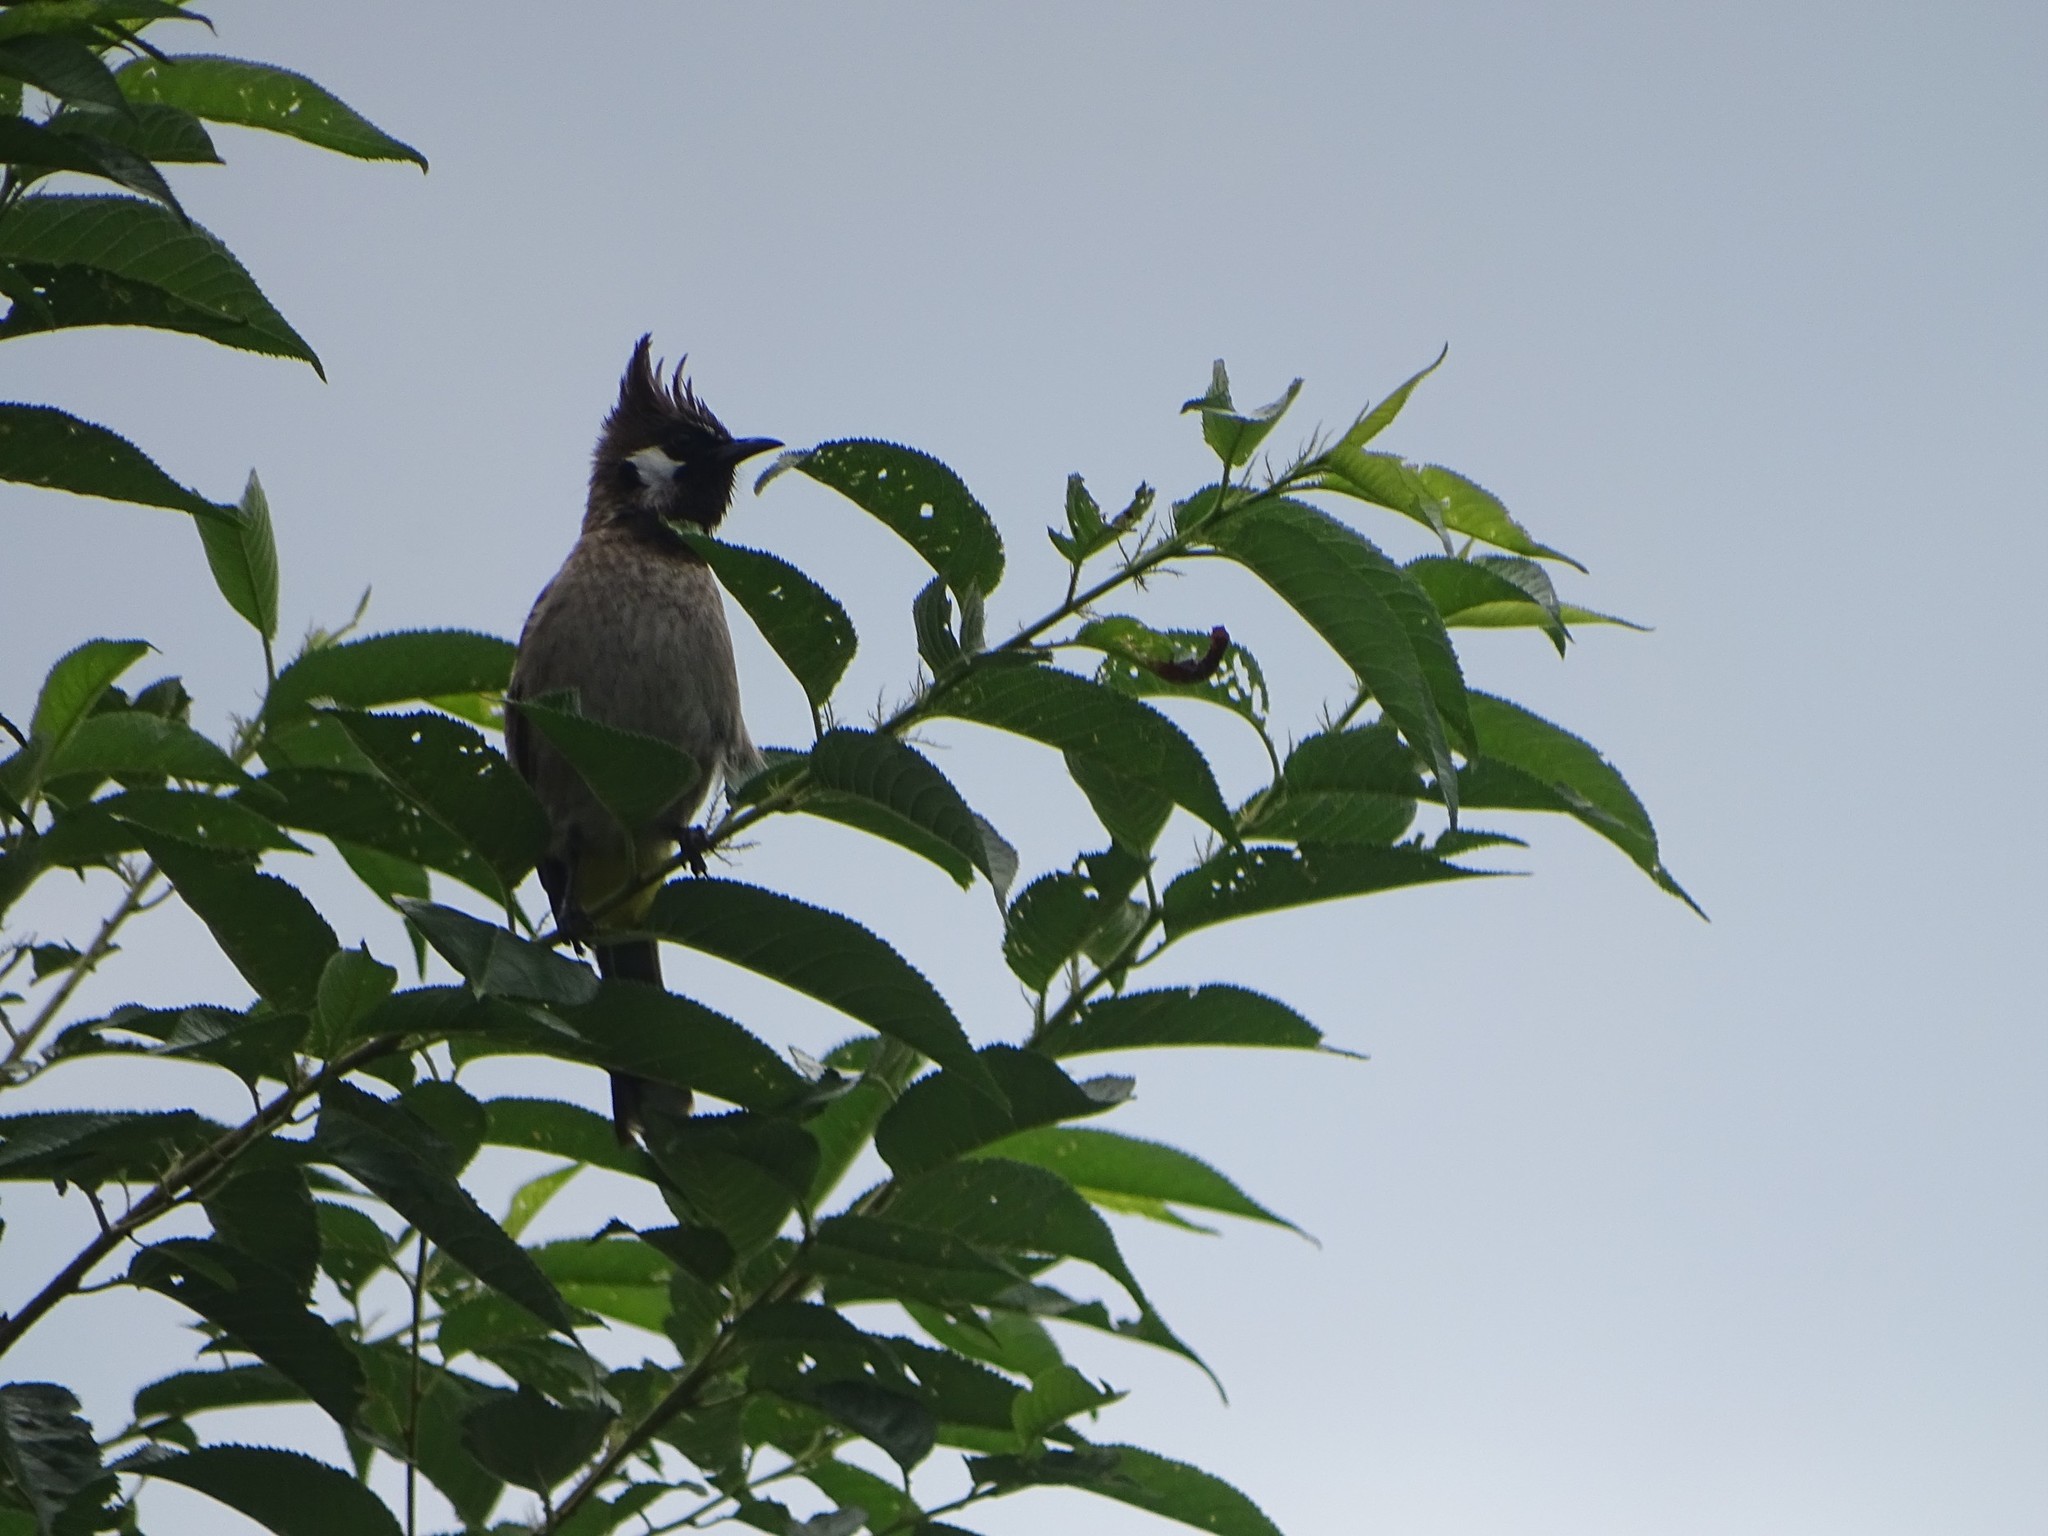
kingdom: Animalia
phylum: Chordata
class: Aves
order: Passeriformes
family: Pycnonotidae
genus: Pycnonotus
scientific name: Pycnonotus leucogenys
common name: Himalayan bulbul
